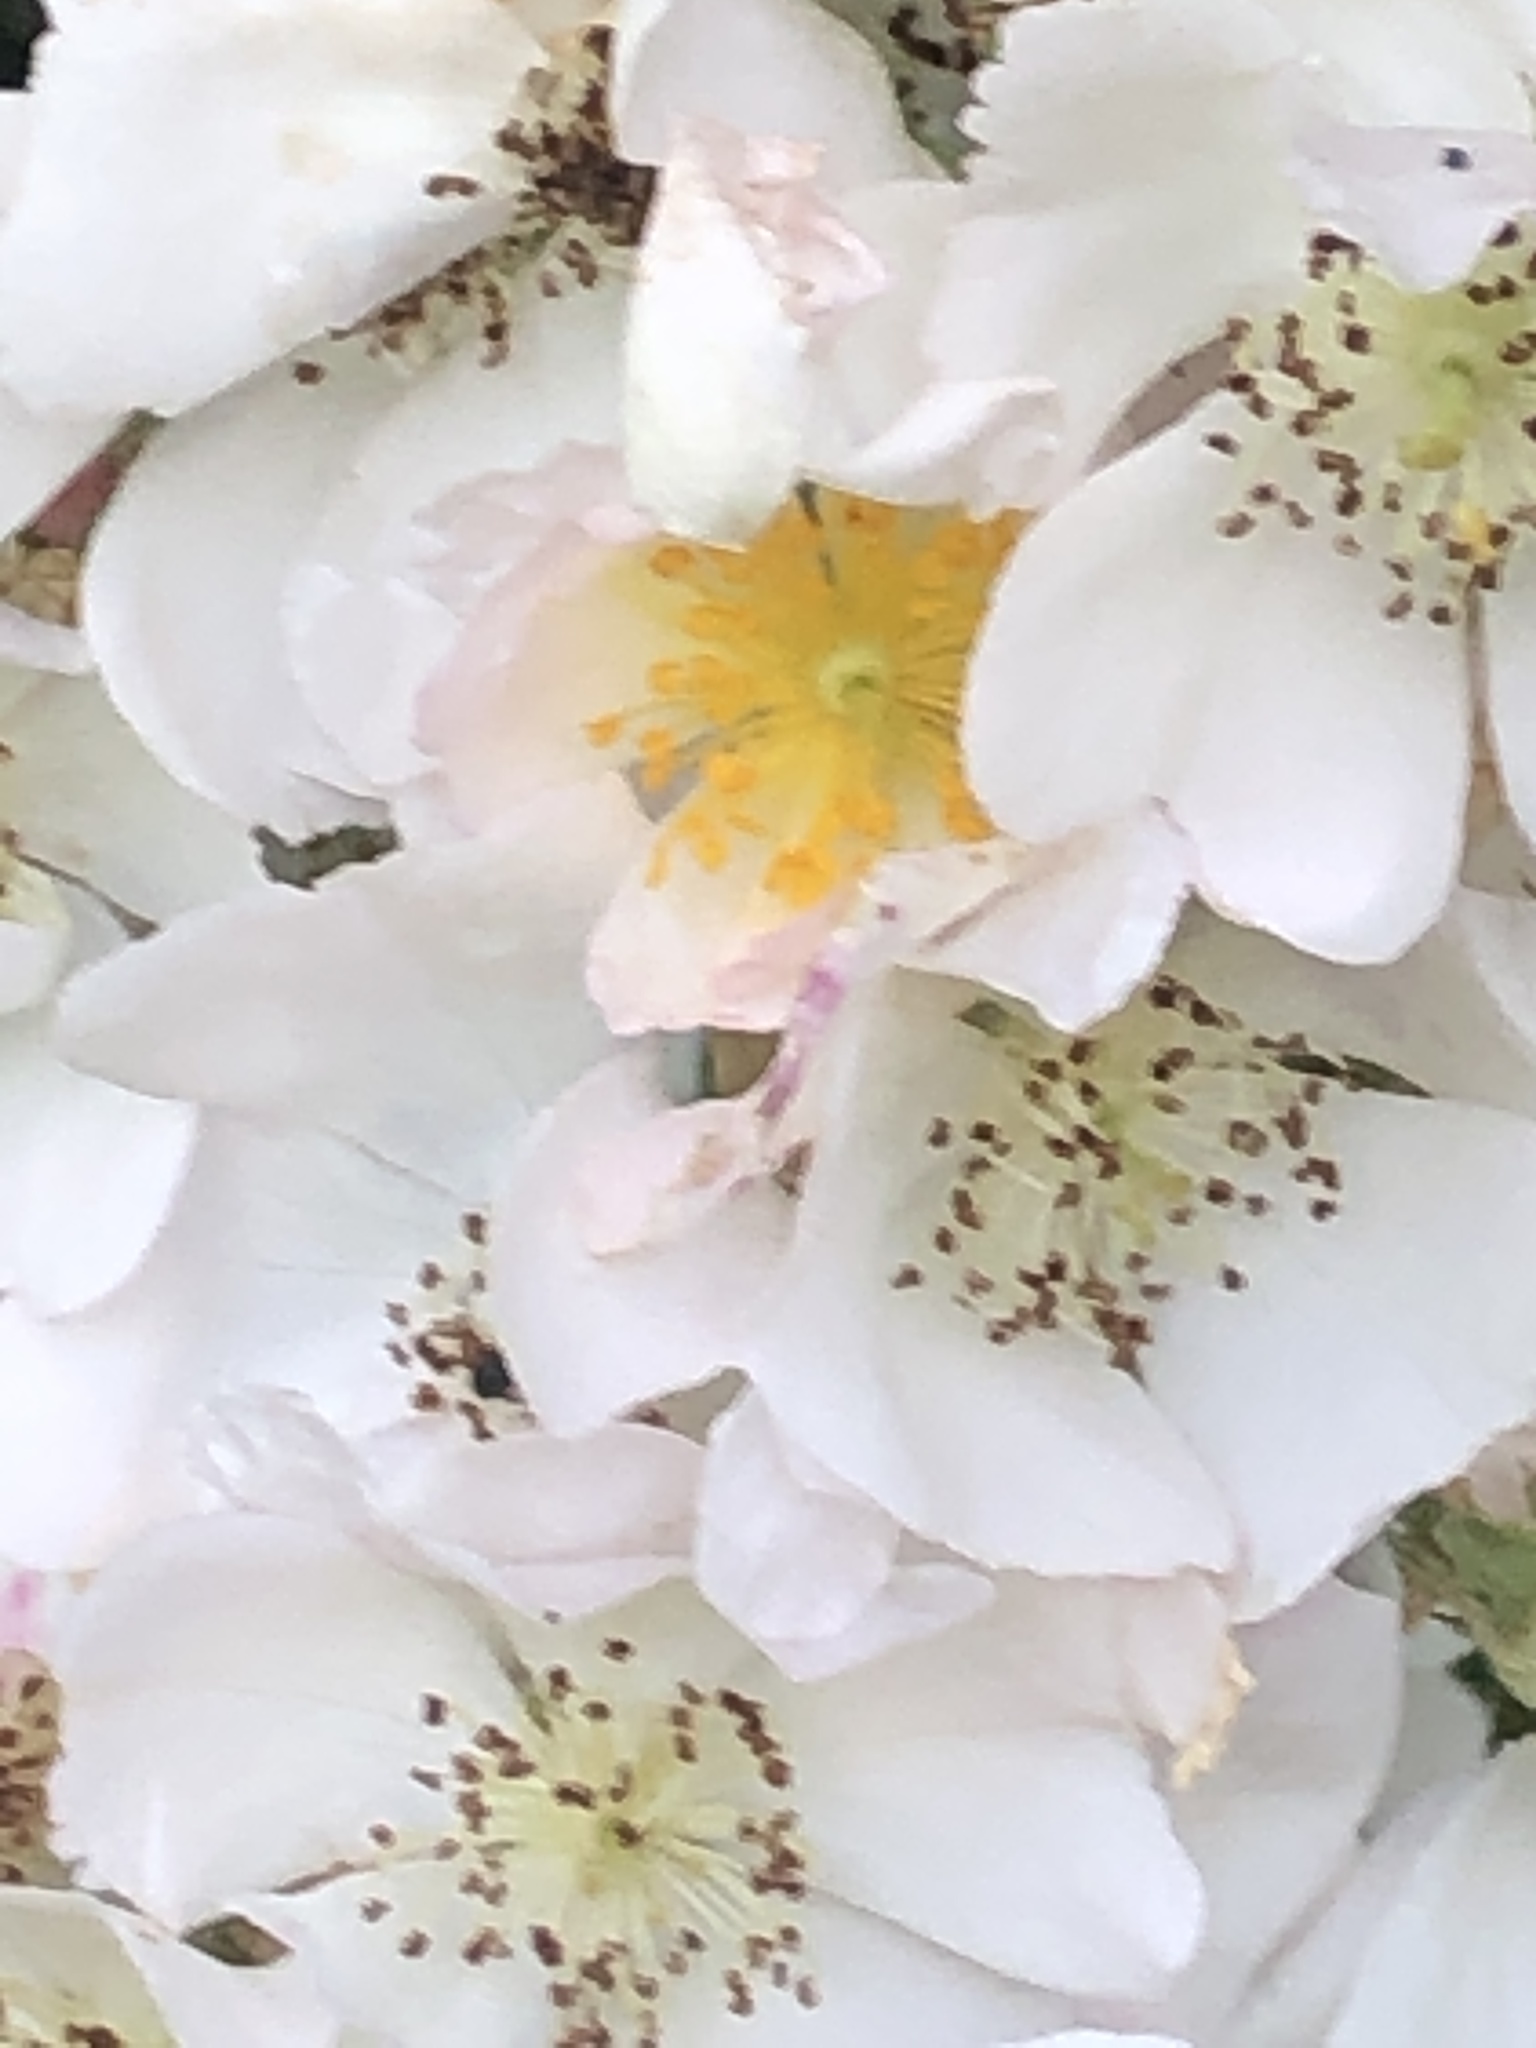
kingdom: Plantae
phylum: Tracheophyta
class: Magnoliopsida
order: Rosales
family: Rosaceae
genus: Rosa
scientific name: Rosa multiflora
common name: Multiflora rose
